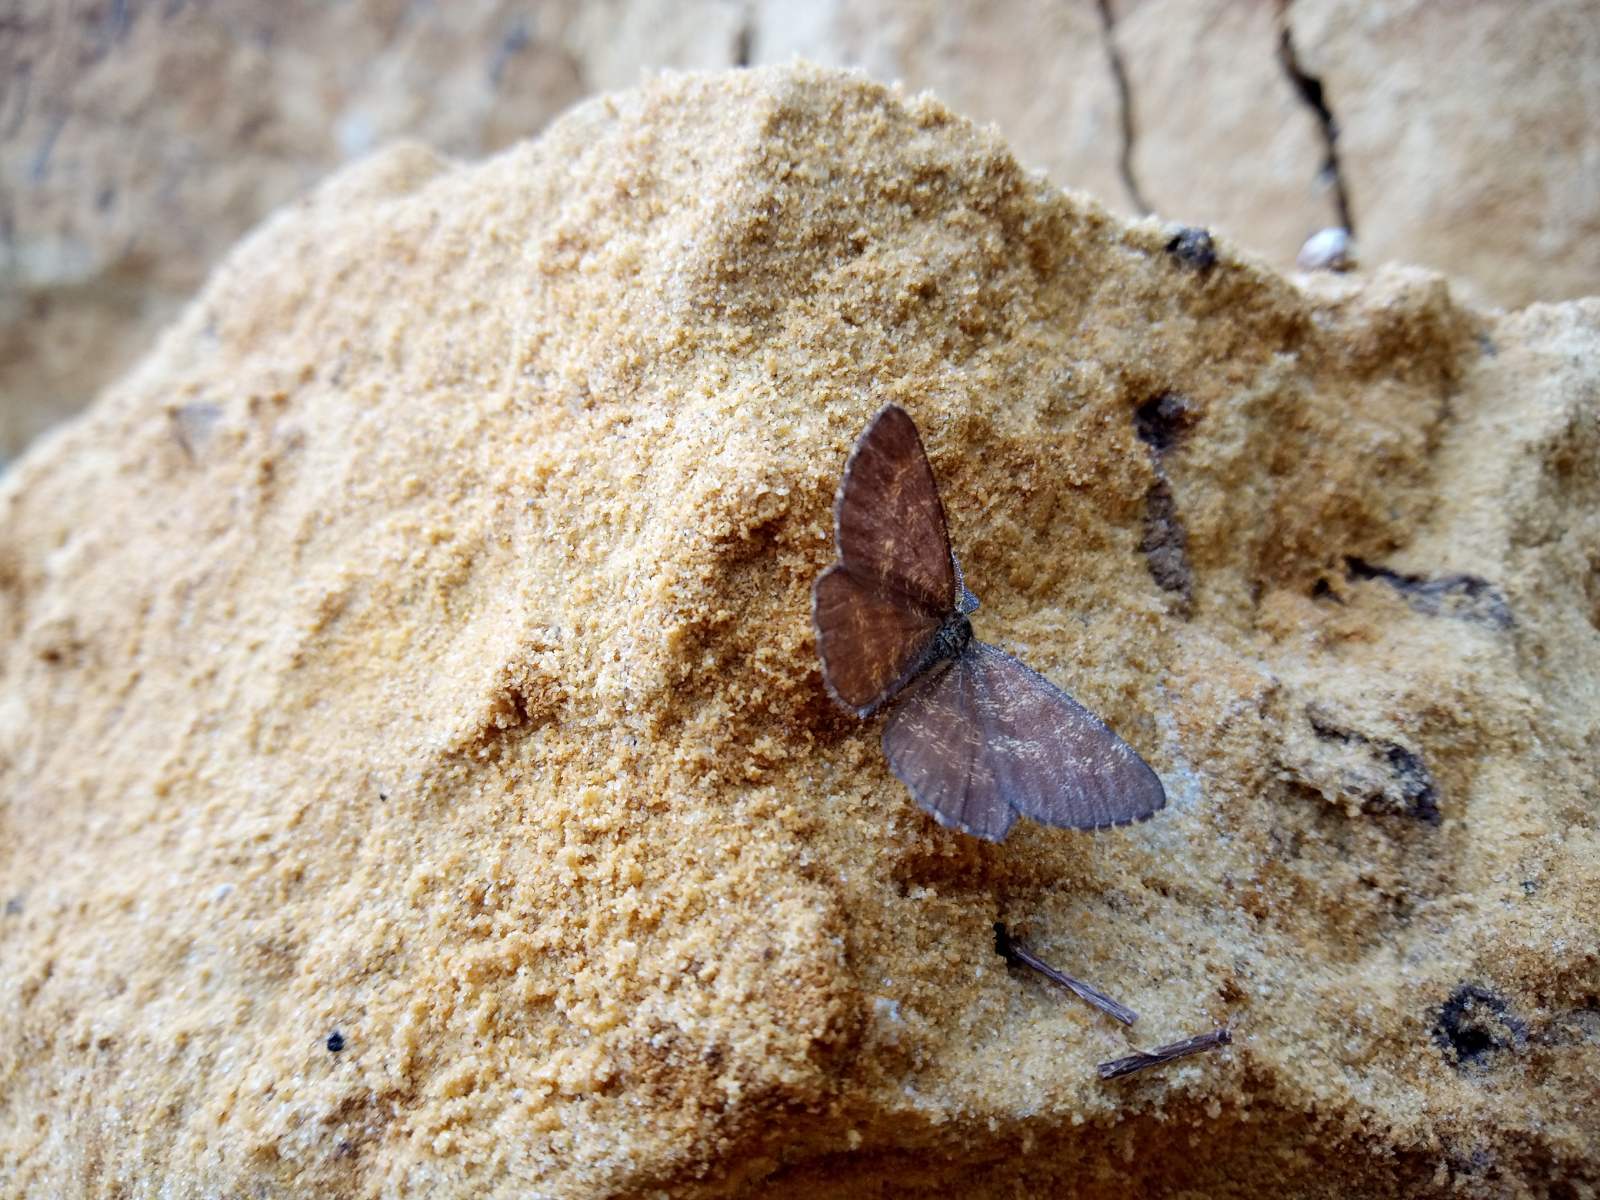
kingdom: Animalia
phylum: Arthropoda
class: Insecta
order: Lepidoptera
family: Geometridae
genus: Ematurga
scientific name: Ematurga atomaria
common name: Common heath
